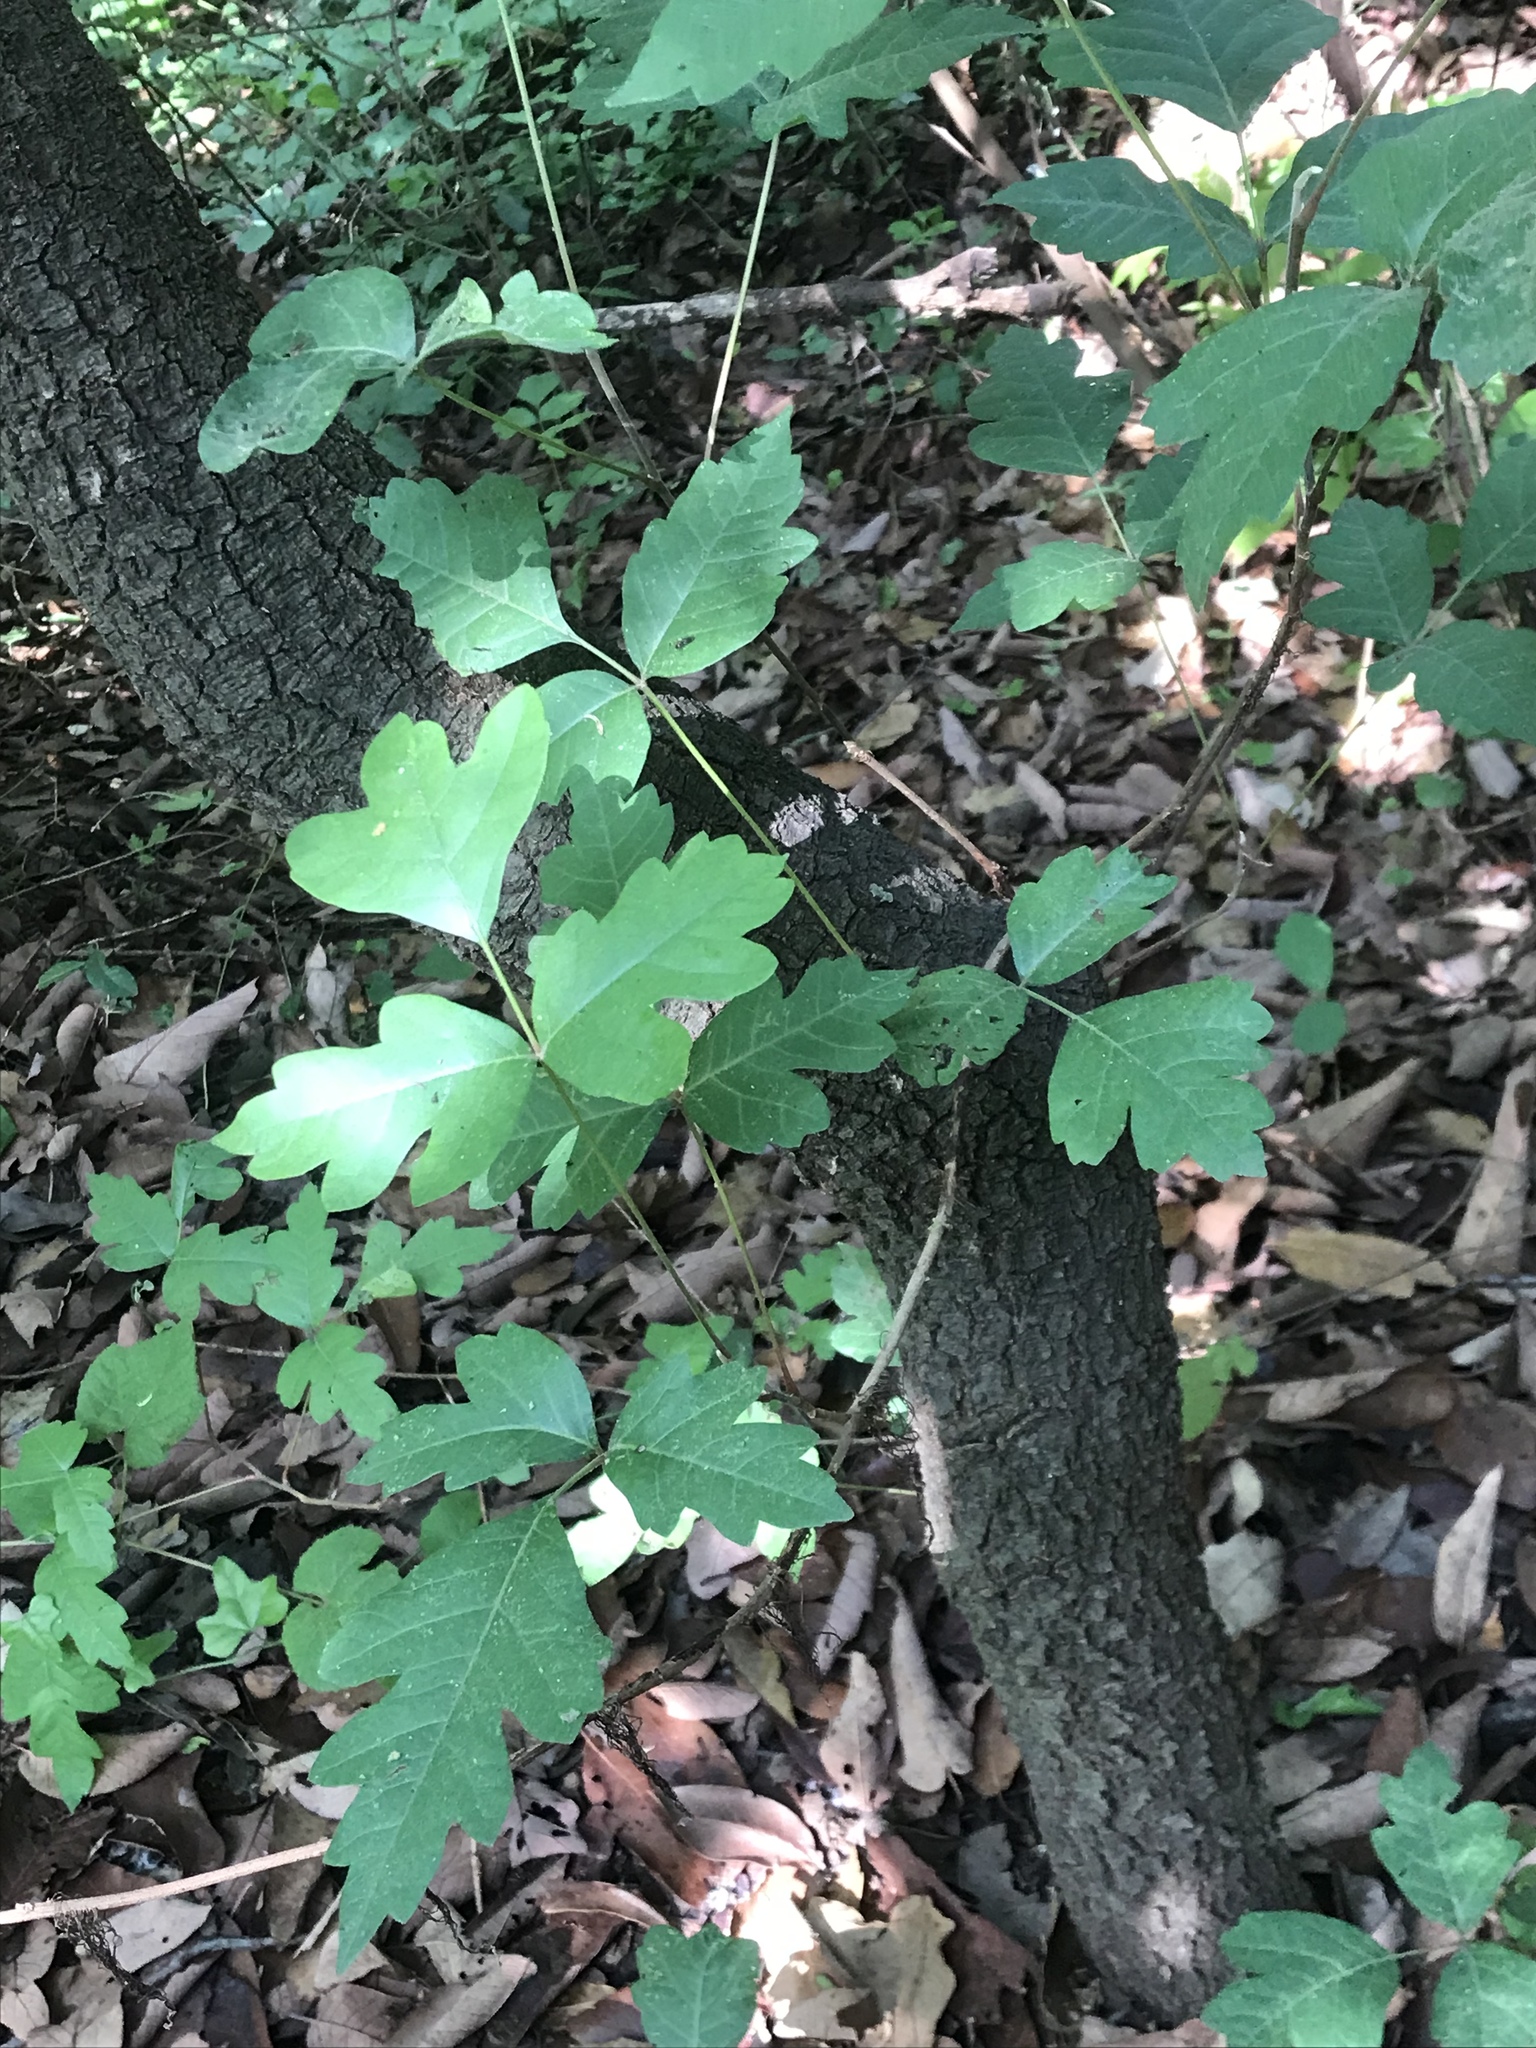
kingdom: Plantae
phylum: Tracheophyta
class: Magnoliopsida
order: Sapindales
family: Anacardiaceae
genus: Toxicodendron
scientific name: Toxicodendron radicans
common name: Poison ivy
